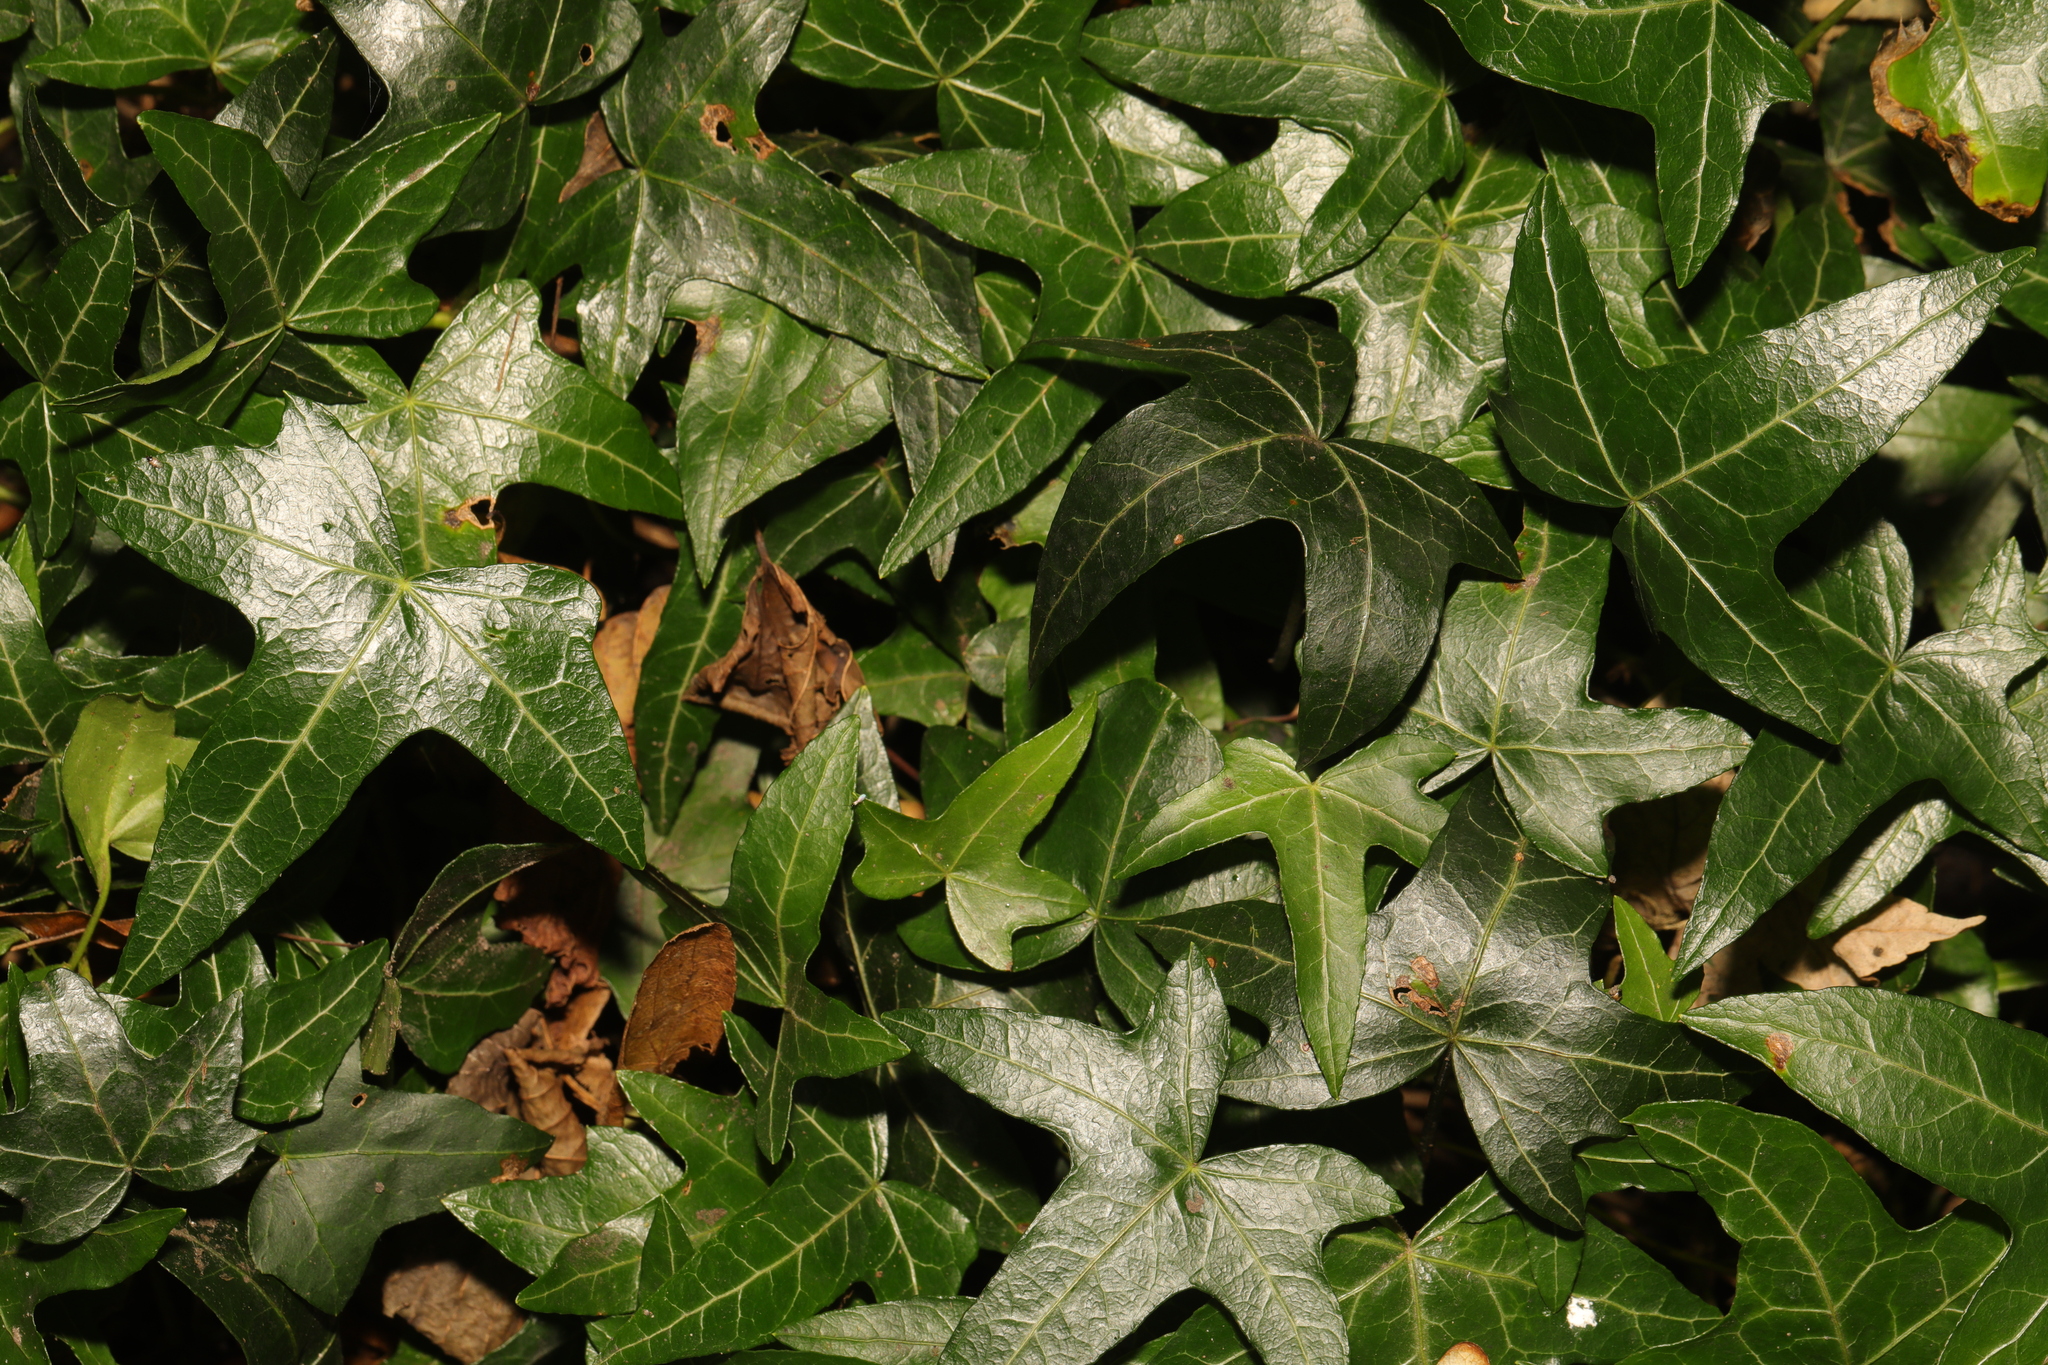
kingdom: Plantae
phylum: Tracheophyta
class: Magnoliopsida
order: Apiales
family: Araliaceae
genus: Hedera
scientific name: Hedera helix
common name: Ivy
